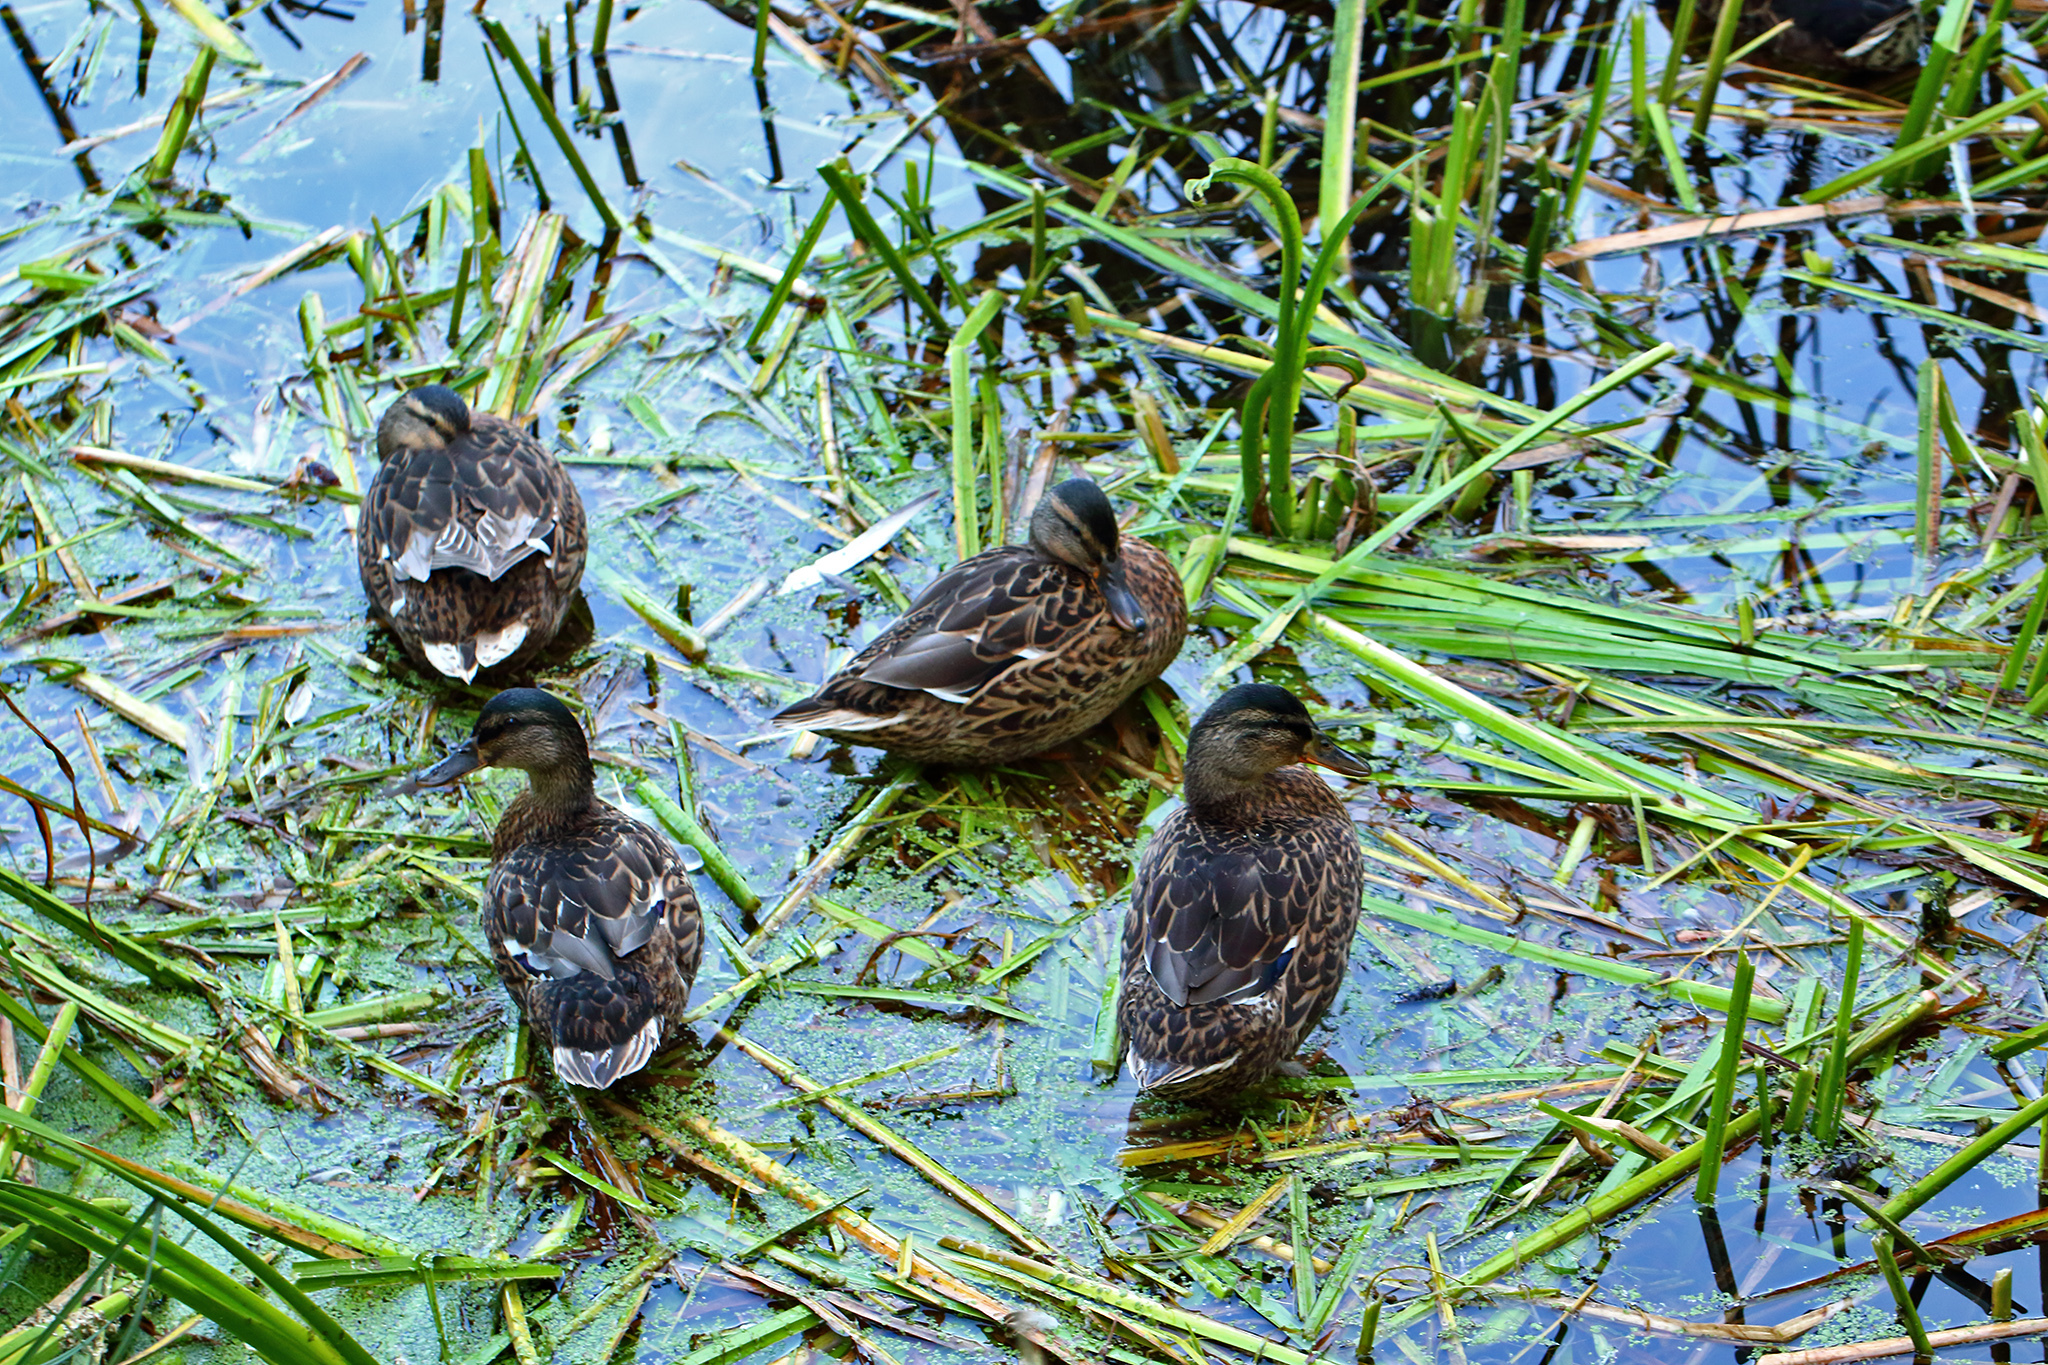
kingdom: Animalia
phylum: Chordata
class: Aves
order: Anseriformes
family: Anatidae
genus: Anas
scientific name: Anas platyrhynchos
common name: Mallard
